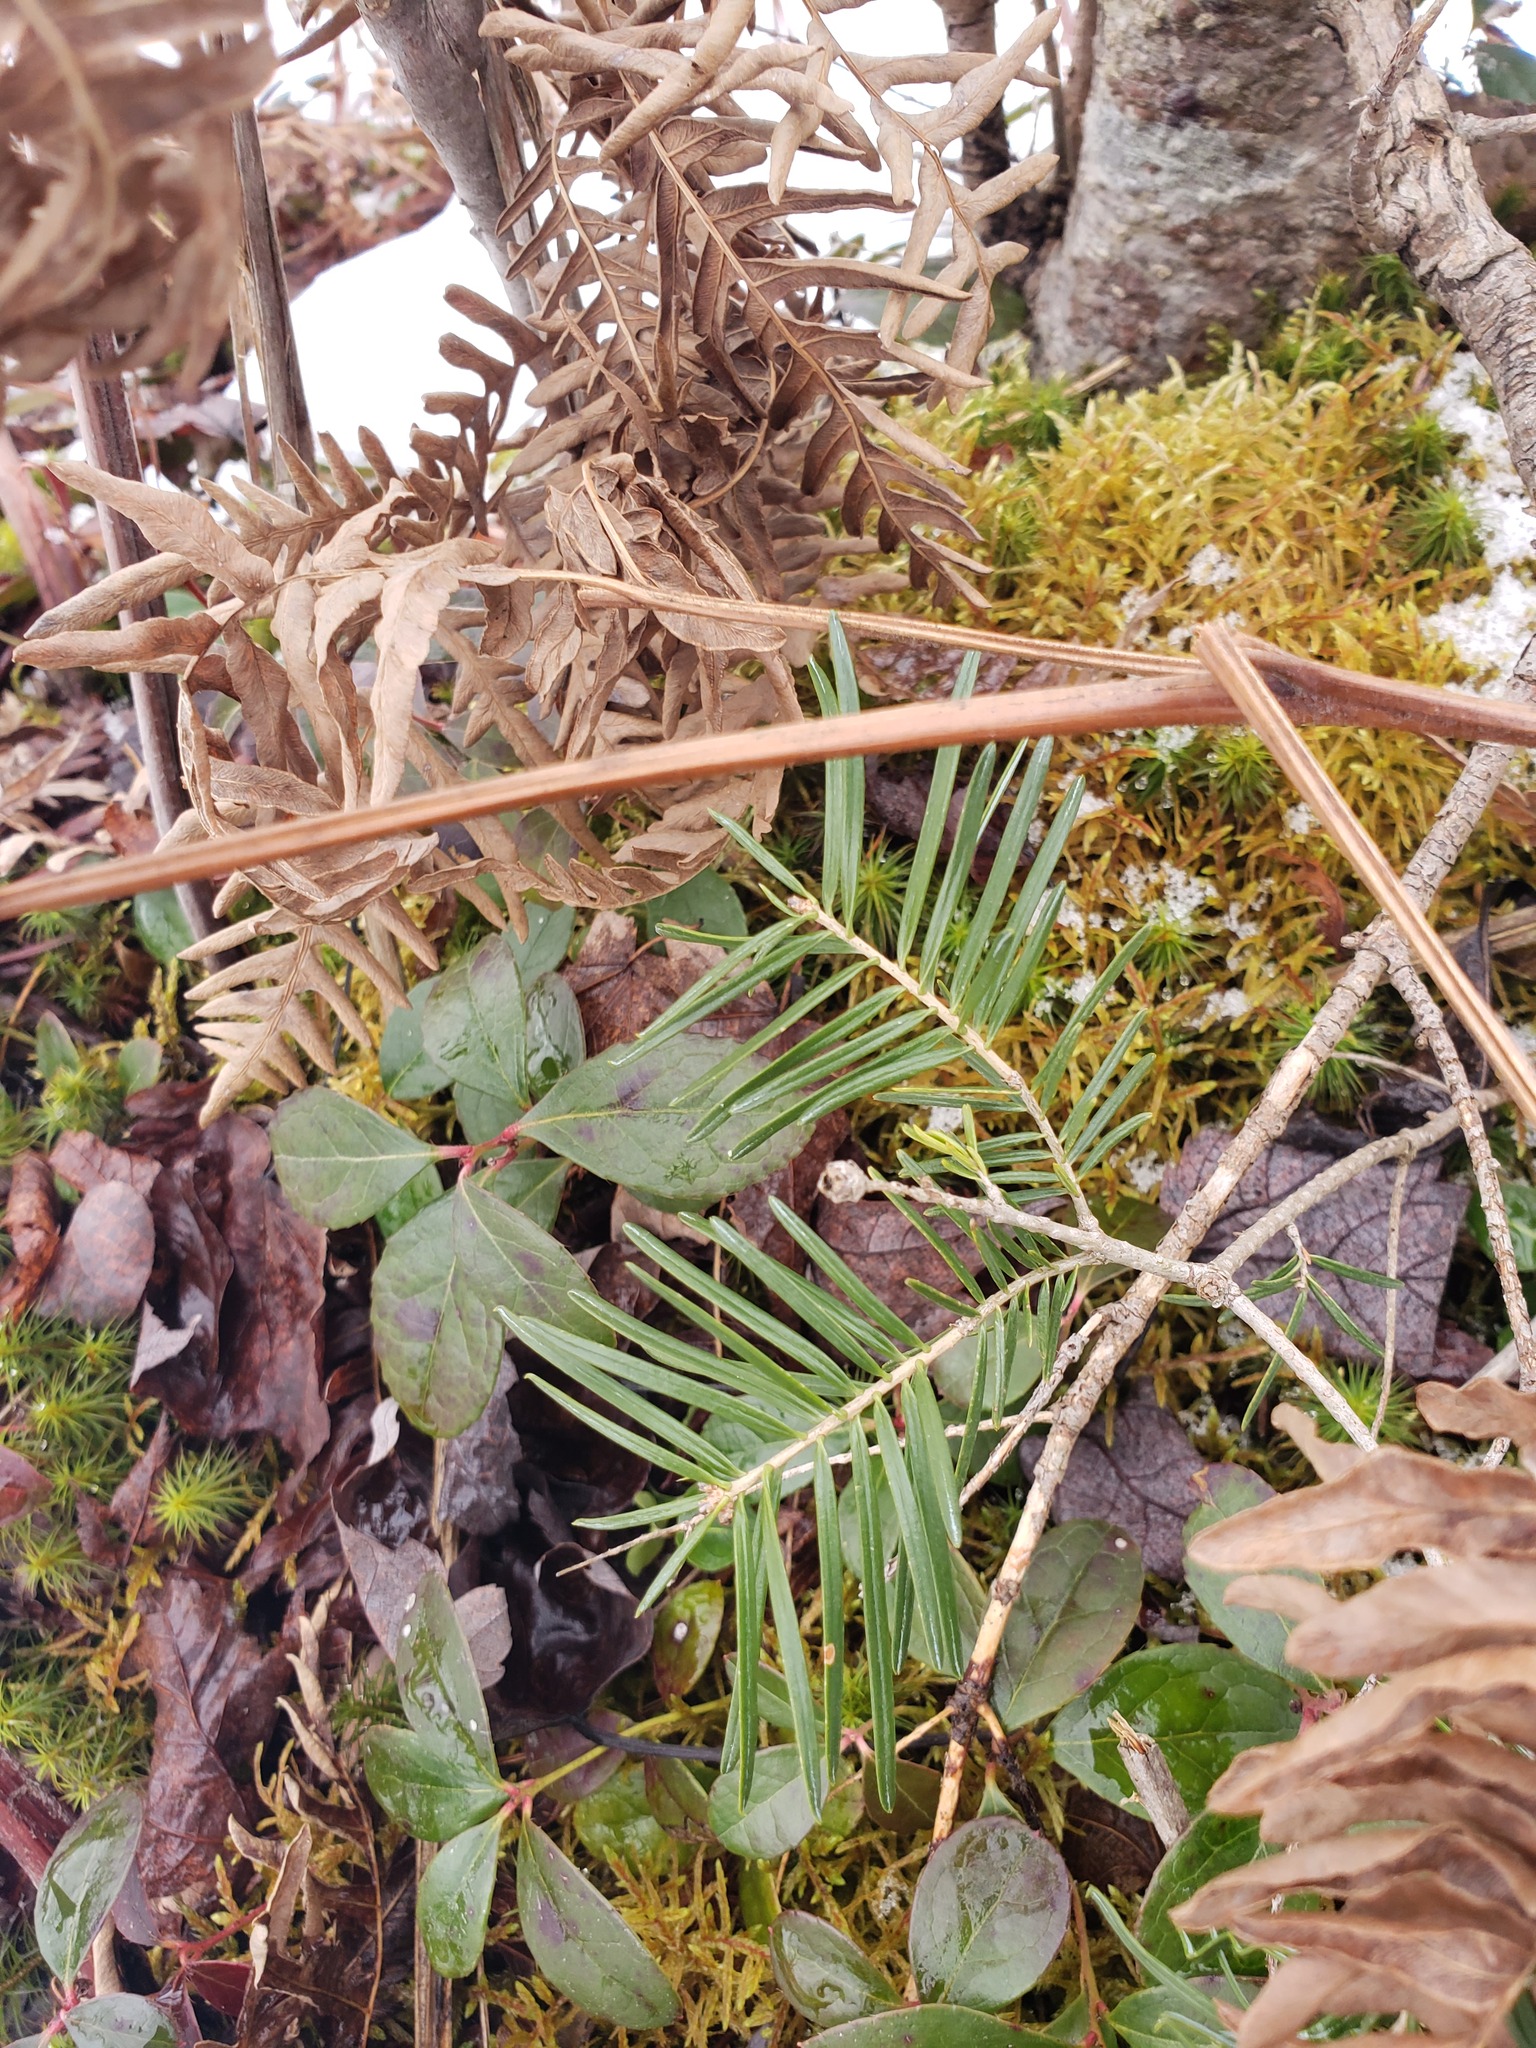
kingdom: Plantae
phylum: Tracheophyta
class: Pinopsida
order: Pinales
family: Pinaceae
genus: Abies
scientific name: Abies balsamea
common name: Balsam fir
